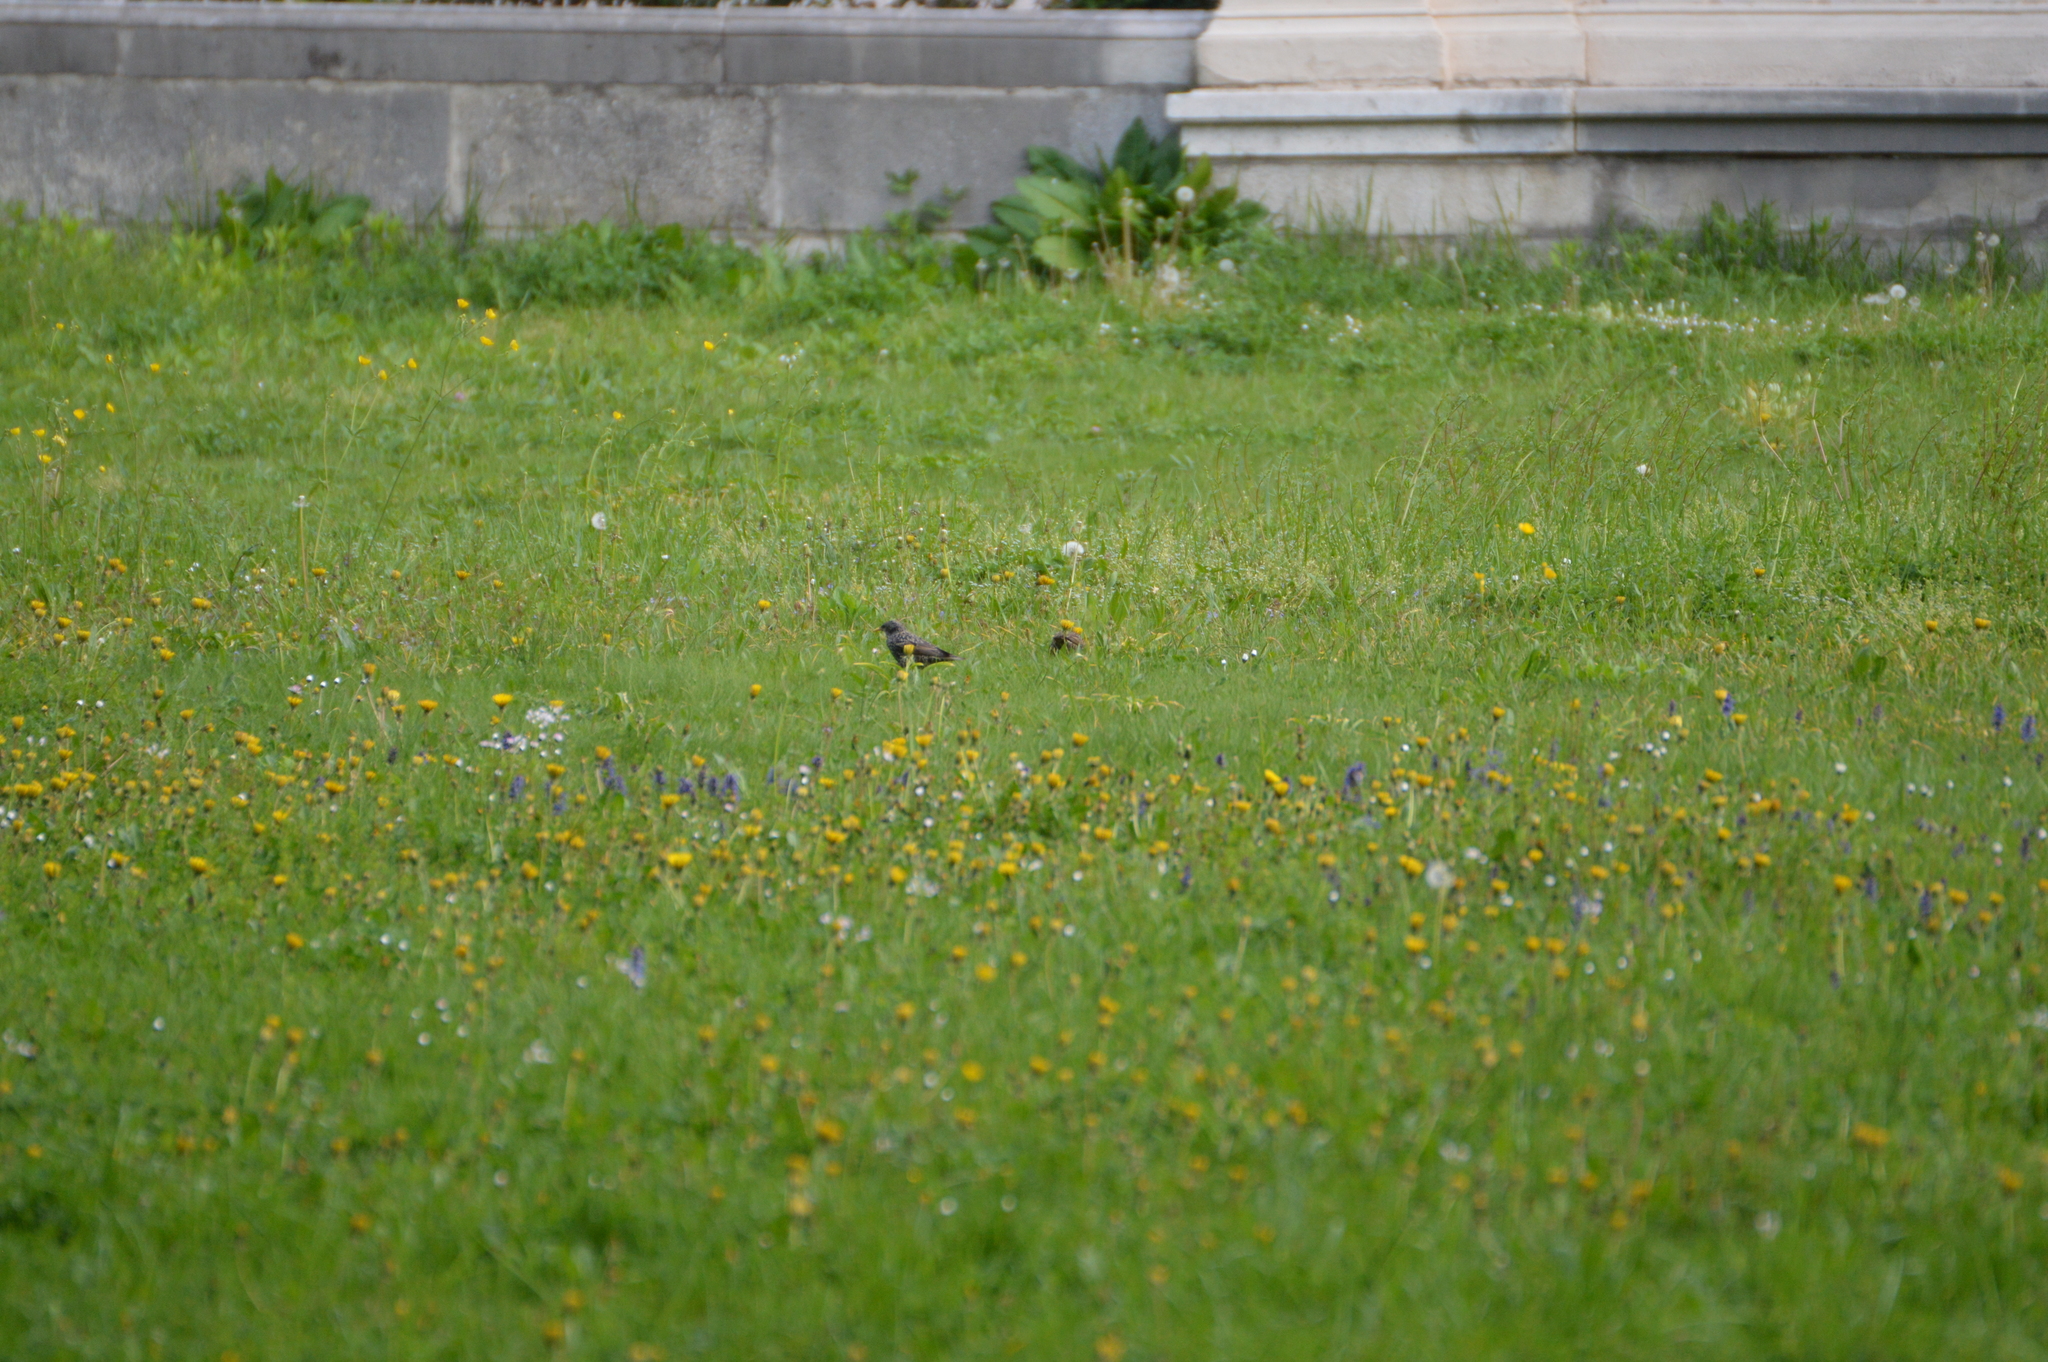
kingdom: Animalia
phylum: Chordata
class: Aves
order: Passeriformes
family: Sturnidae
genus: Sturnus
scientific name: Sturnus vulgaris
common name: Common starling
